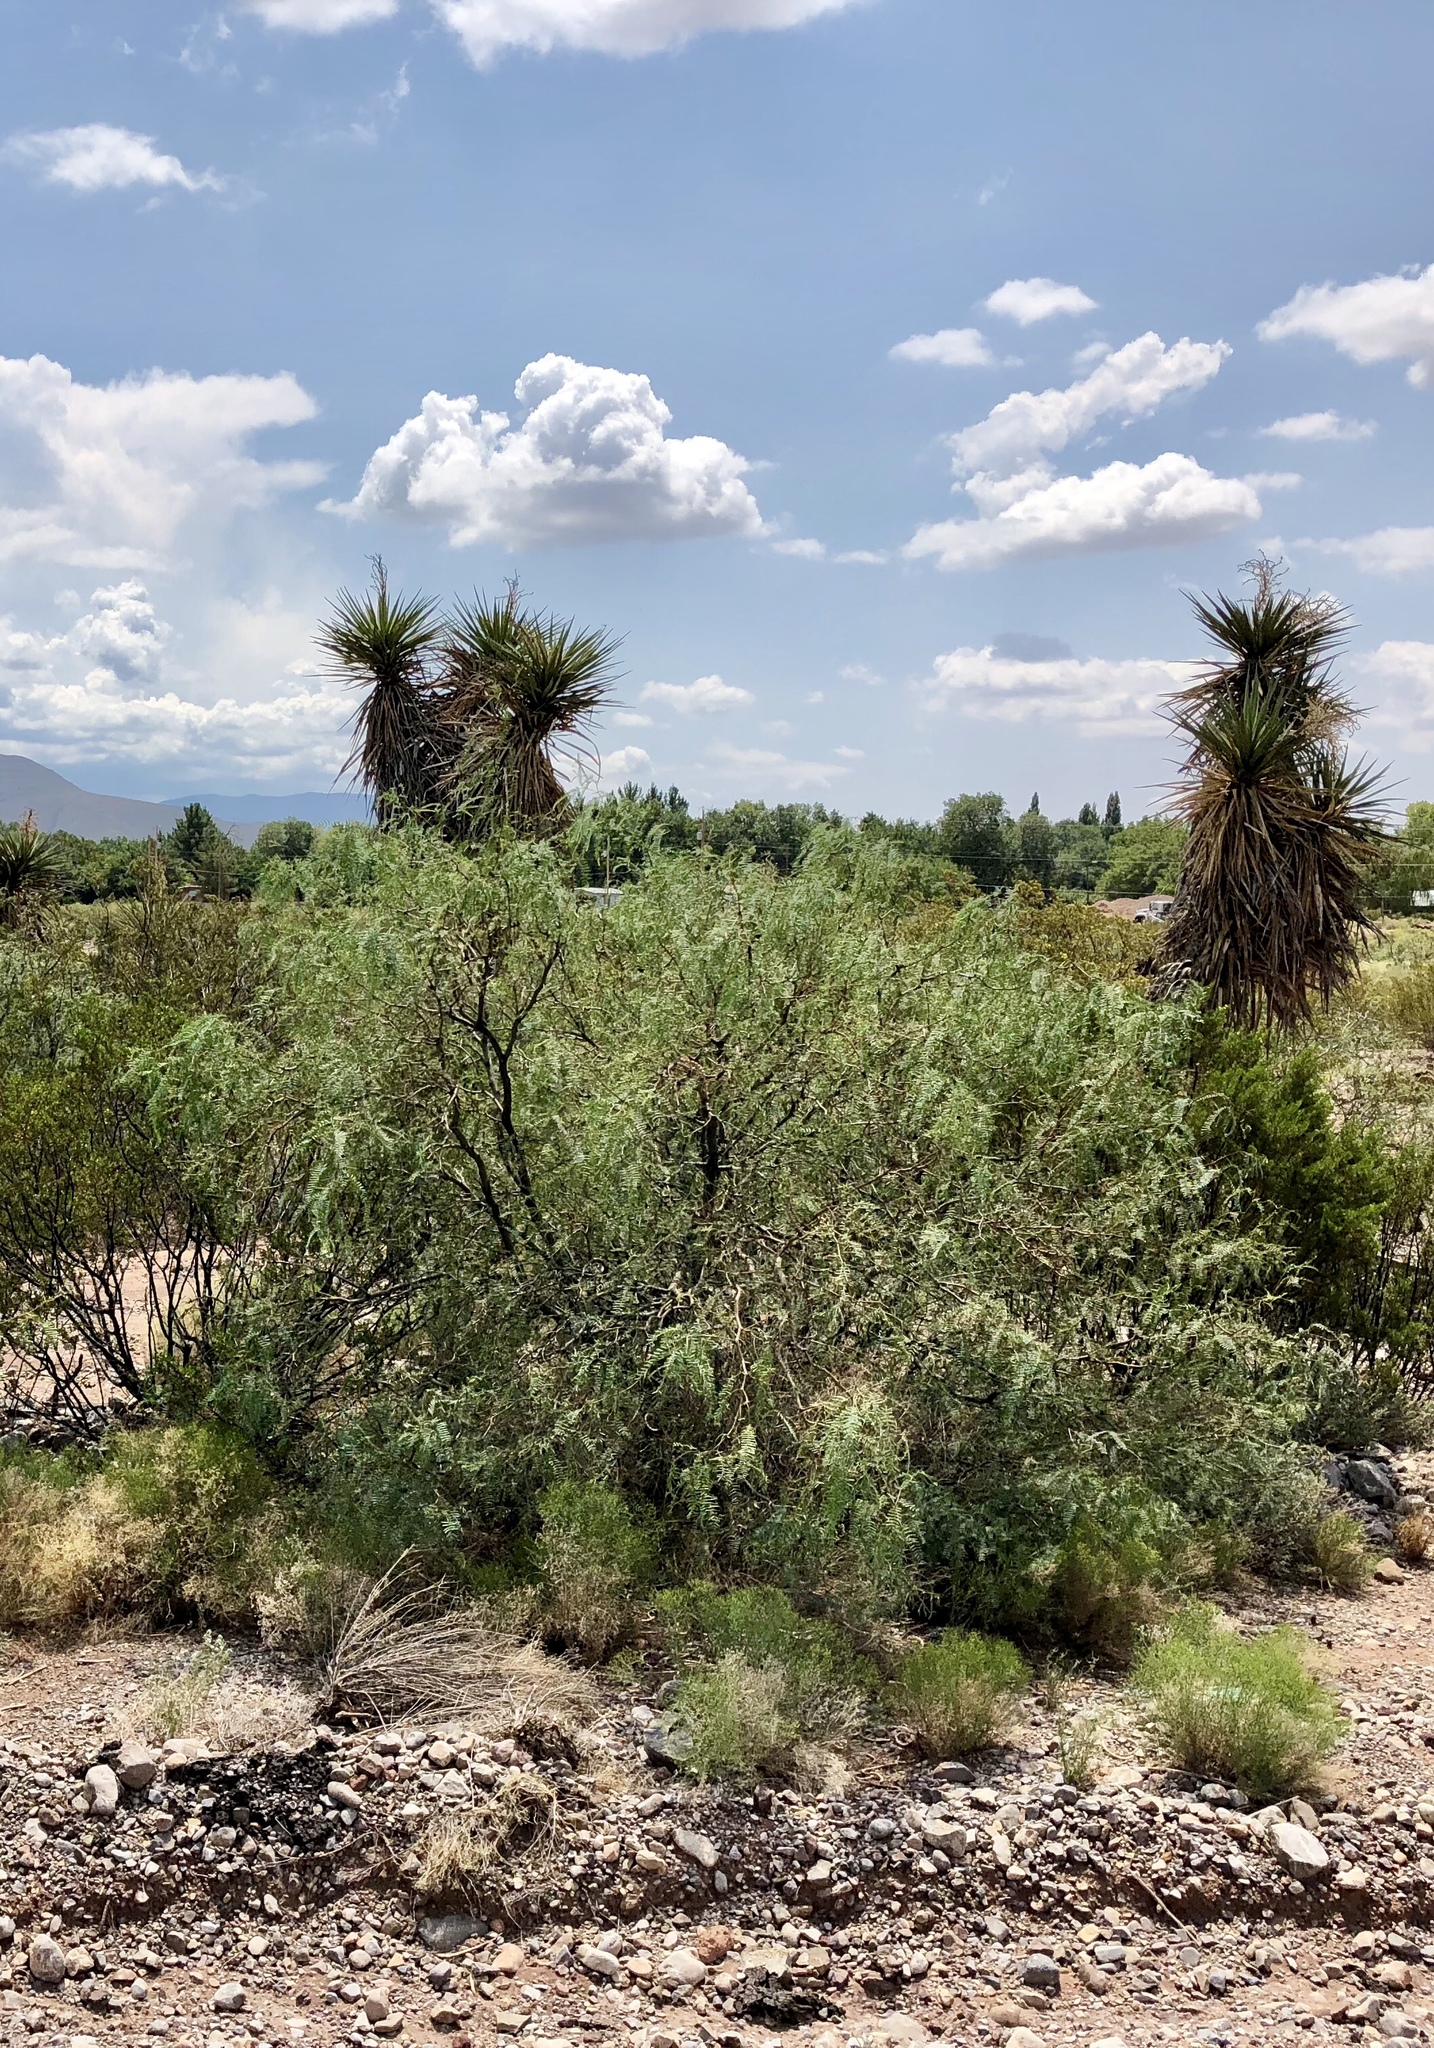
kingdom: Plantae
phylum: Tracheophyta
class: Magnoliopsida
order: Fabales
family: Fabaceae
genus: Prosopis
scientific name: Prosopis glandulosa
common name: Honey mesquite
